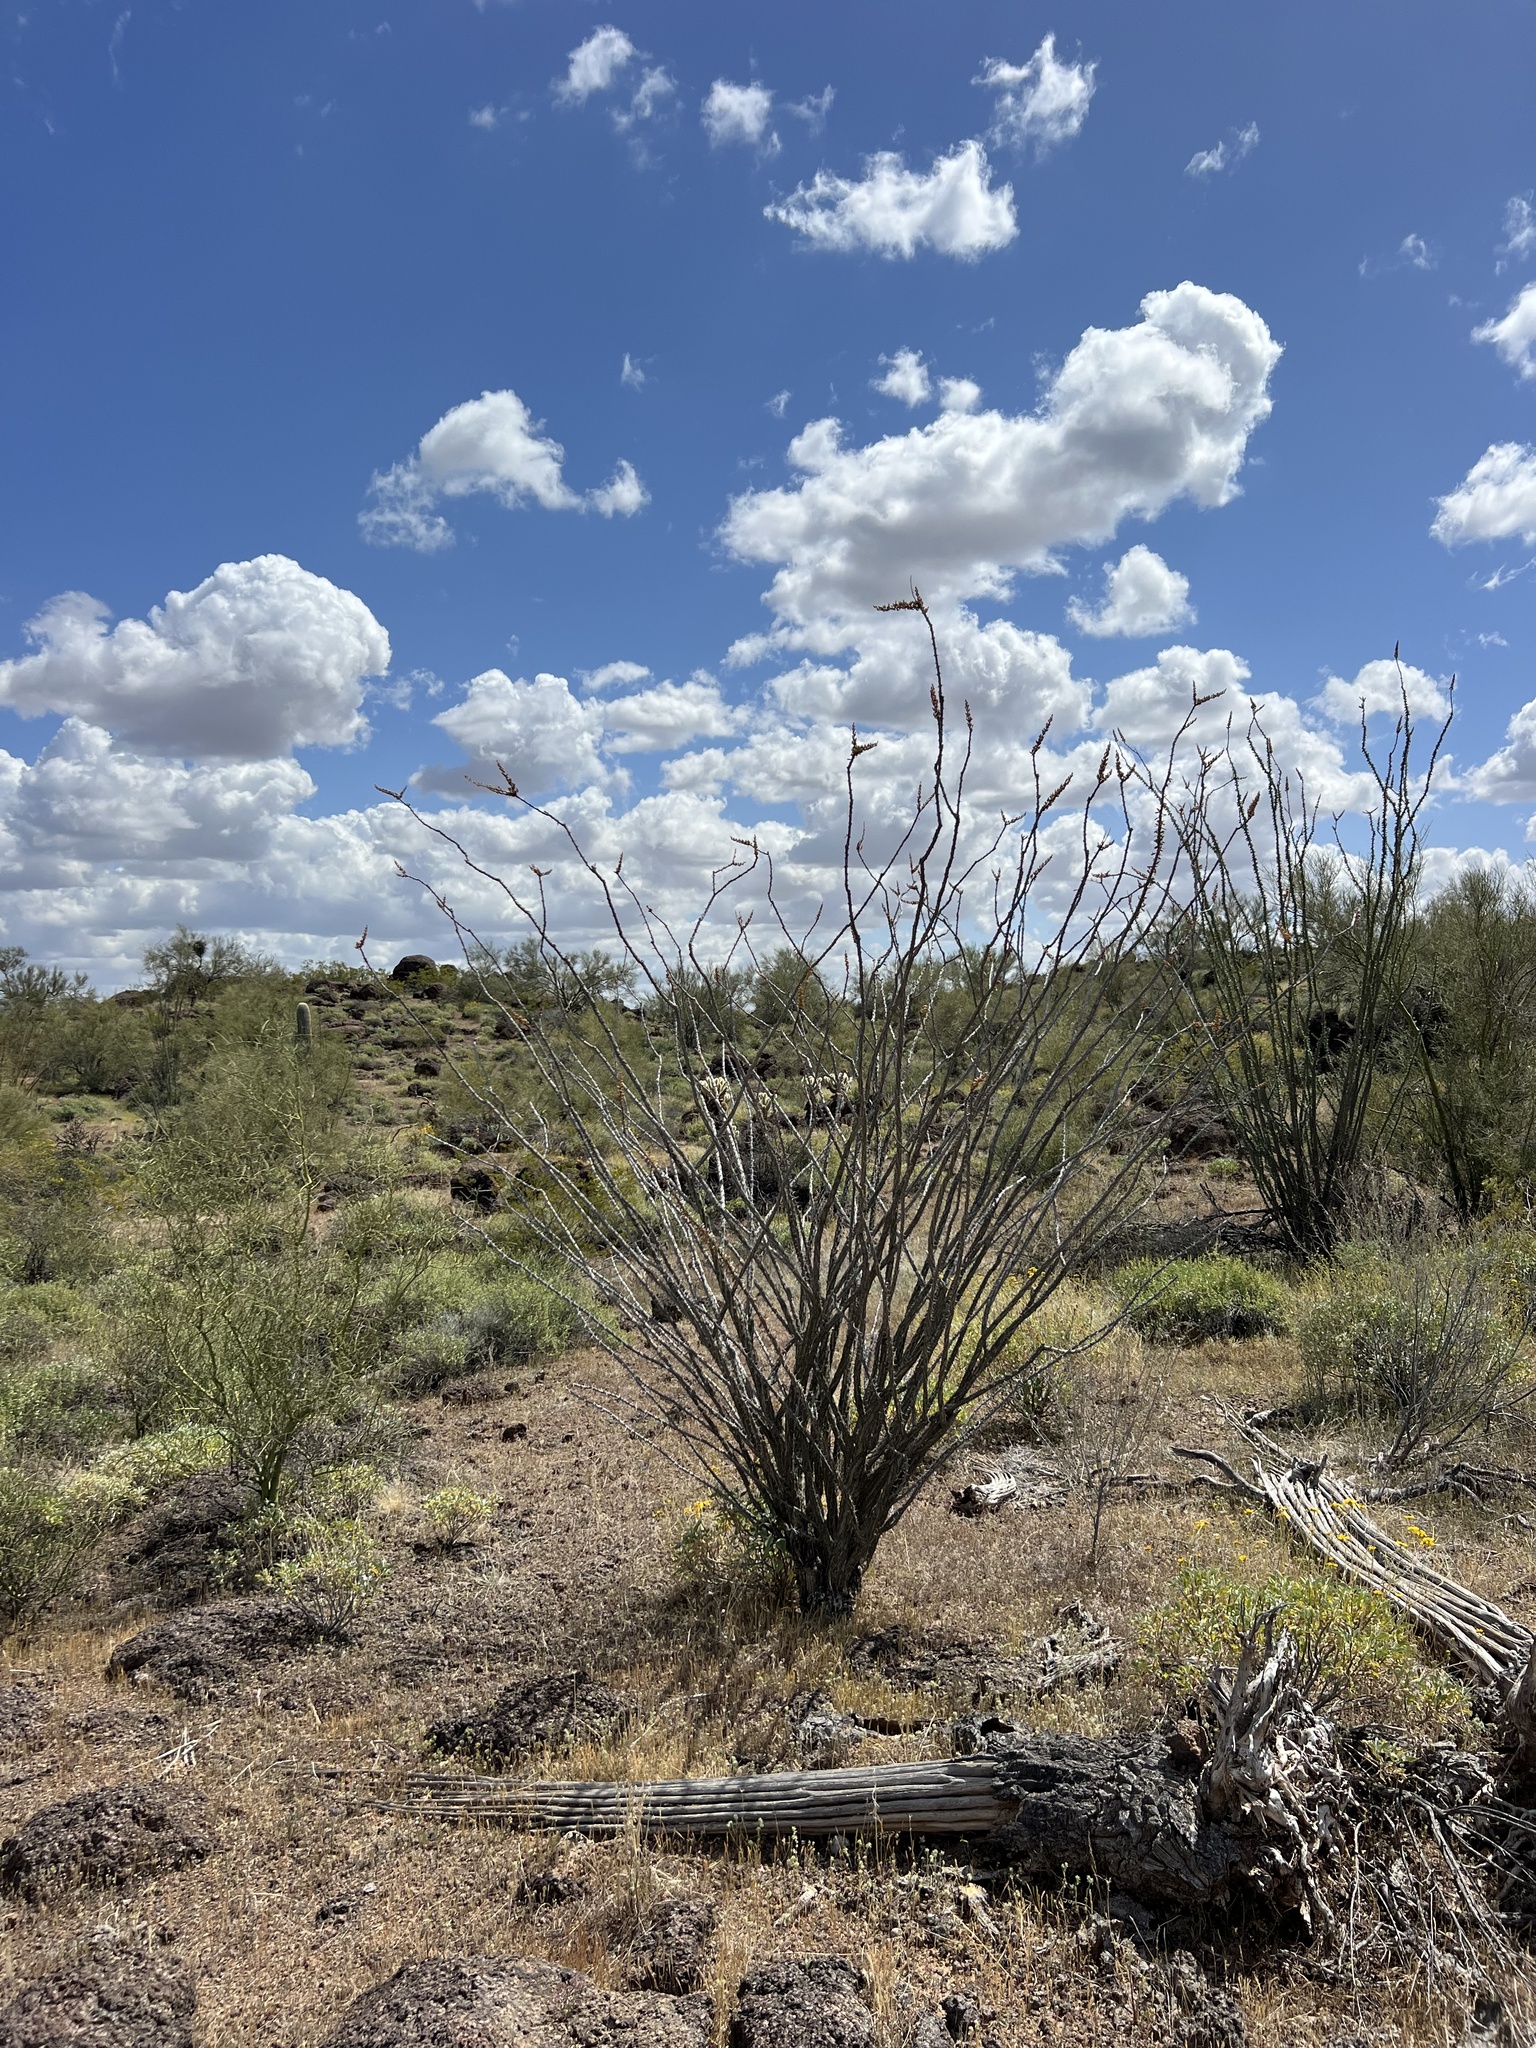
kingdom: Plantae
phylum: Tracheophyta
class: Magnoliopsida
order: Ericales
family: Fouquieriaceae
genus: Fouquieria
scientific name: Fouquieria splendens
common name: Vine-cactus
